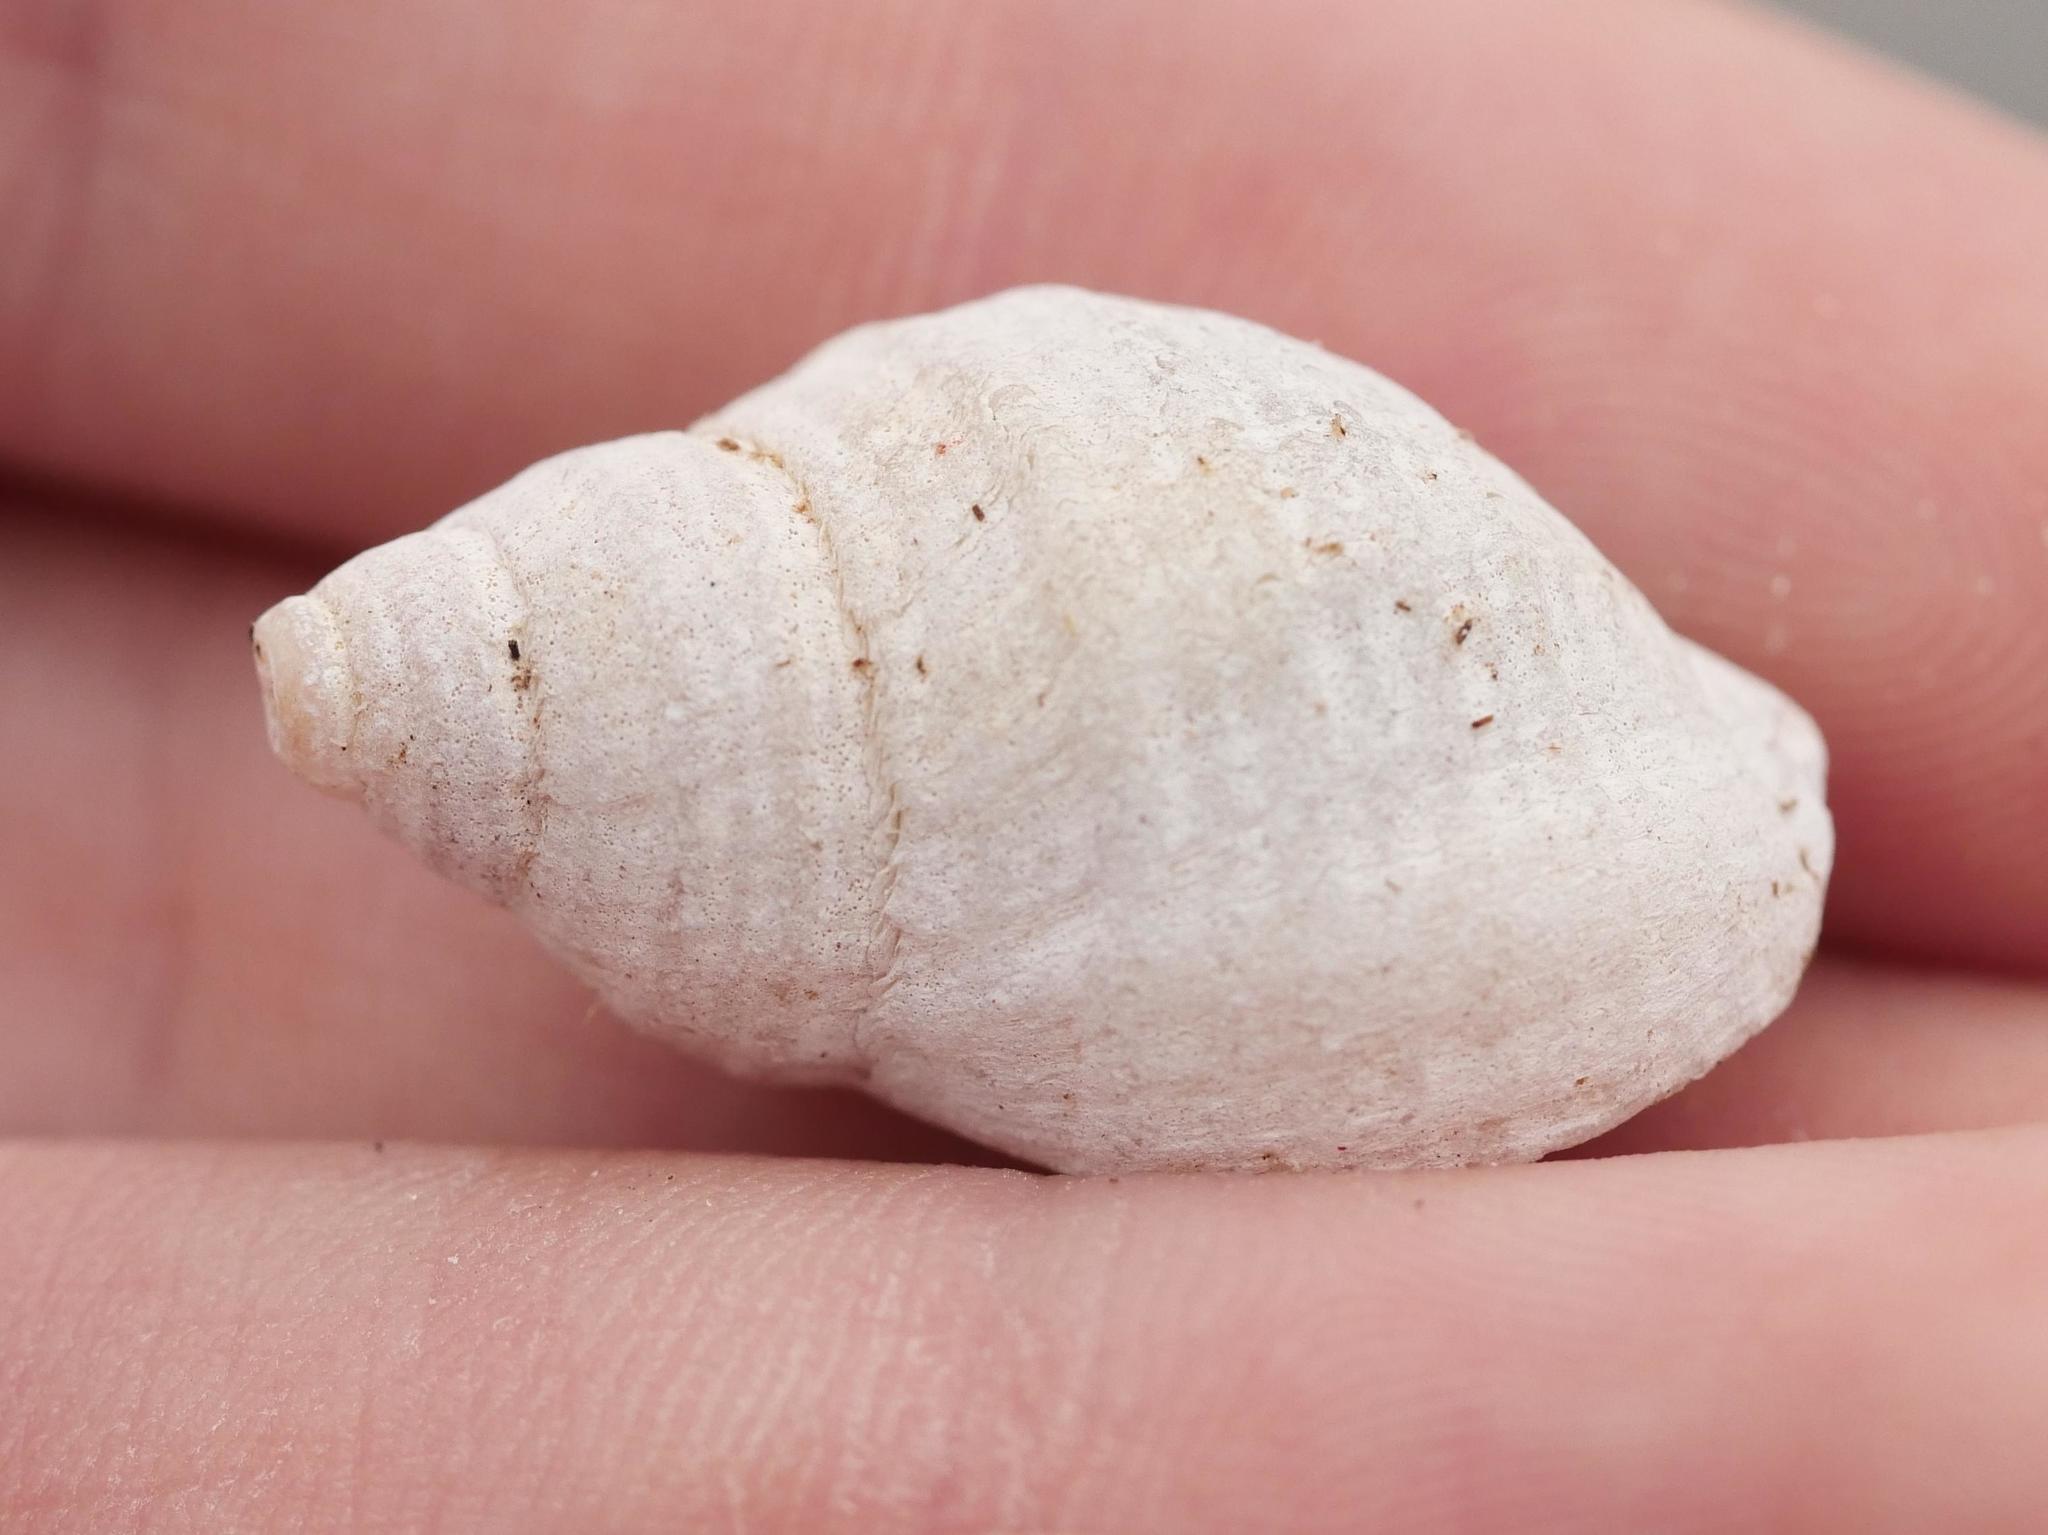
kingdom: Animalia
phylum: Mollusca
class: Gastropoda
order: Neogastropoda
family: Muricidae
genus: Nucella
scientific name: Nucella lapillus
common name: Dog whelk
